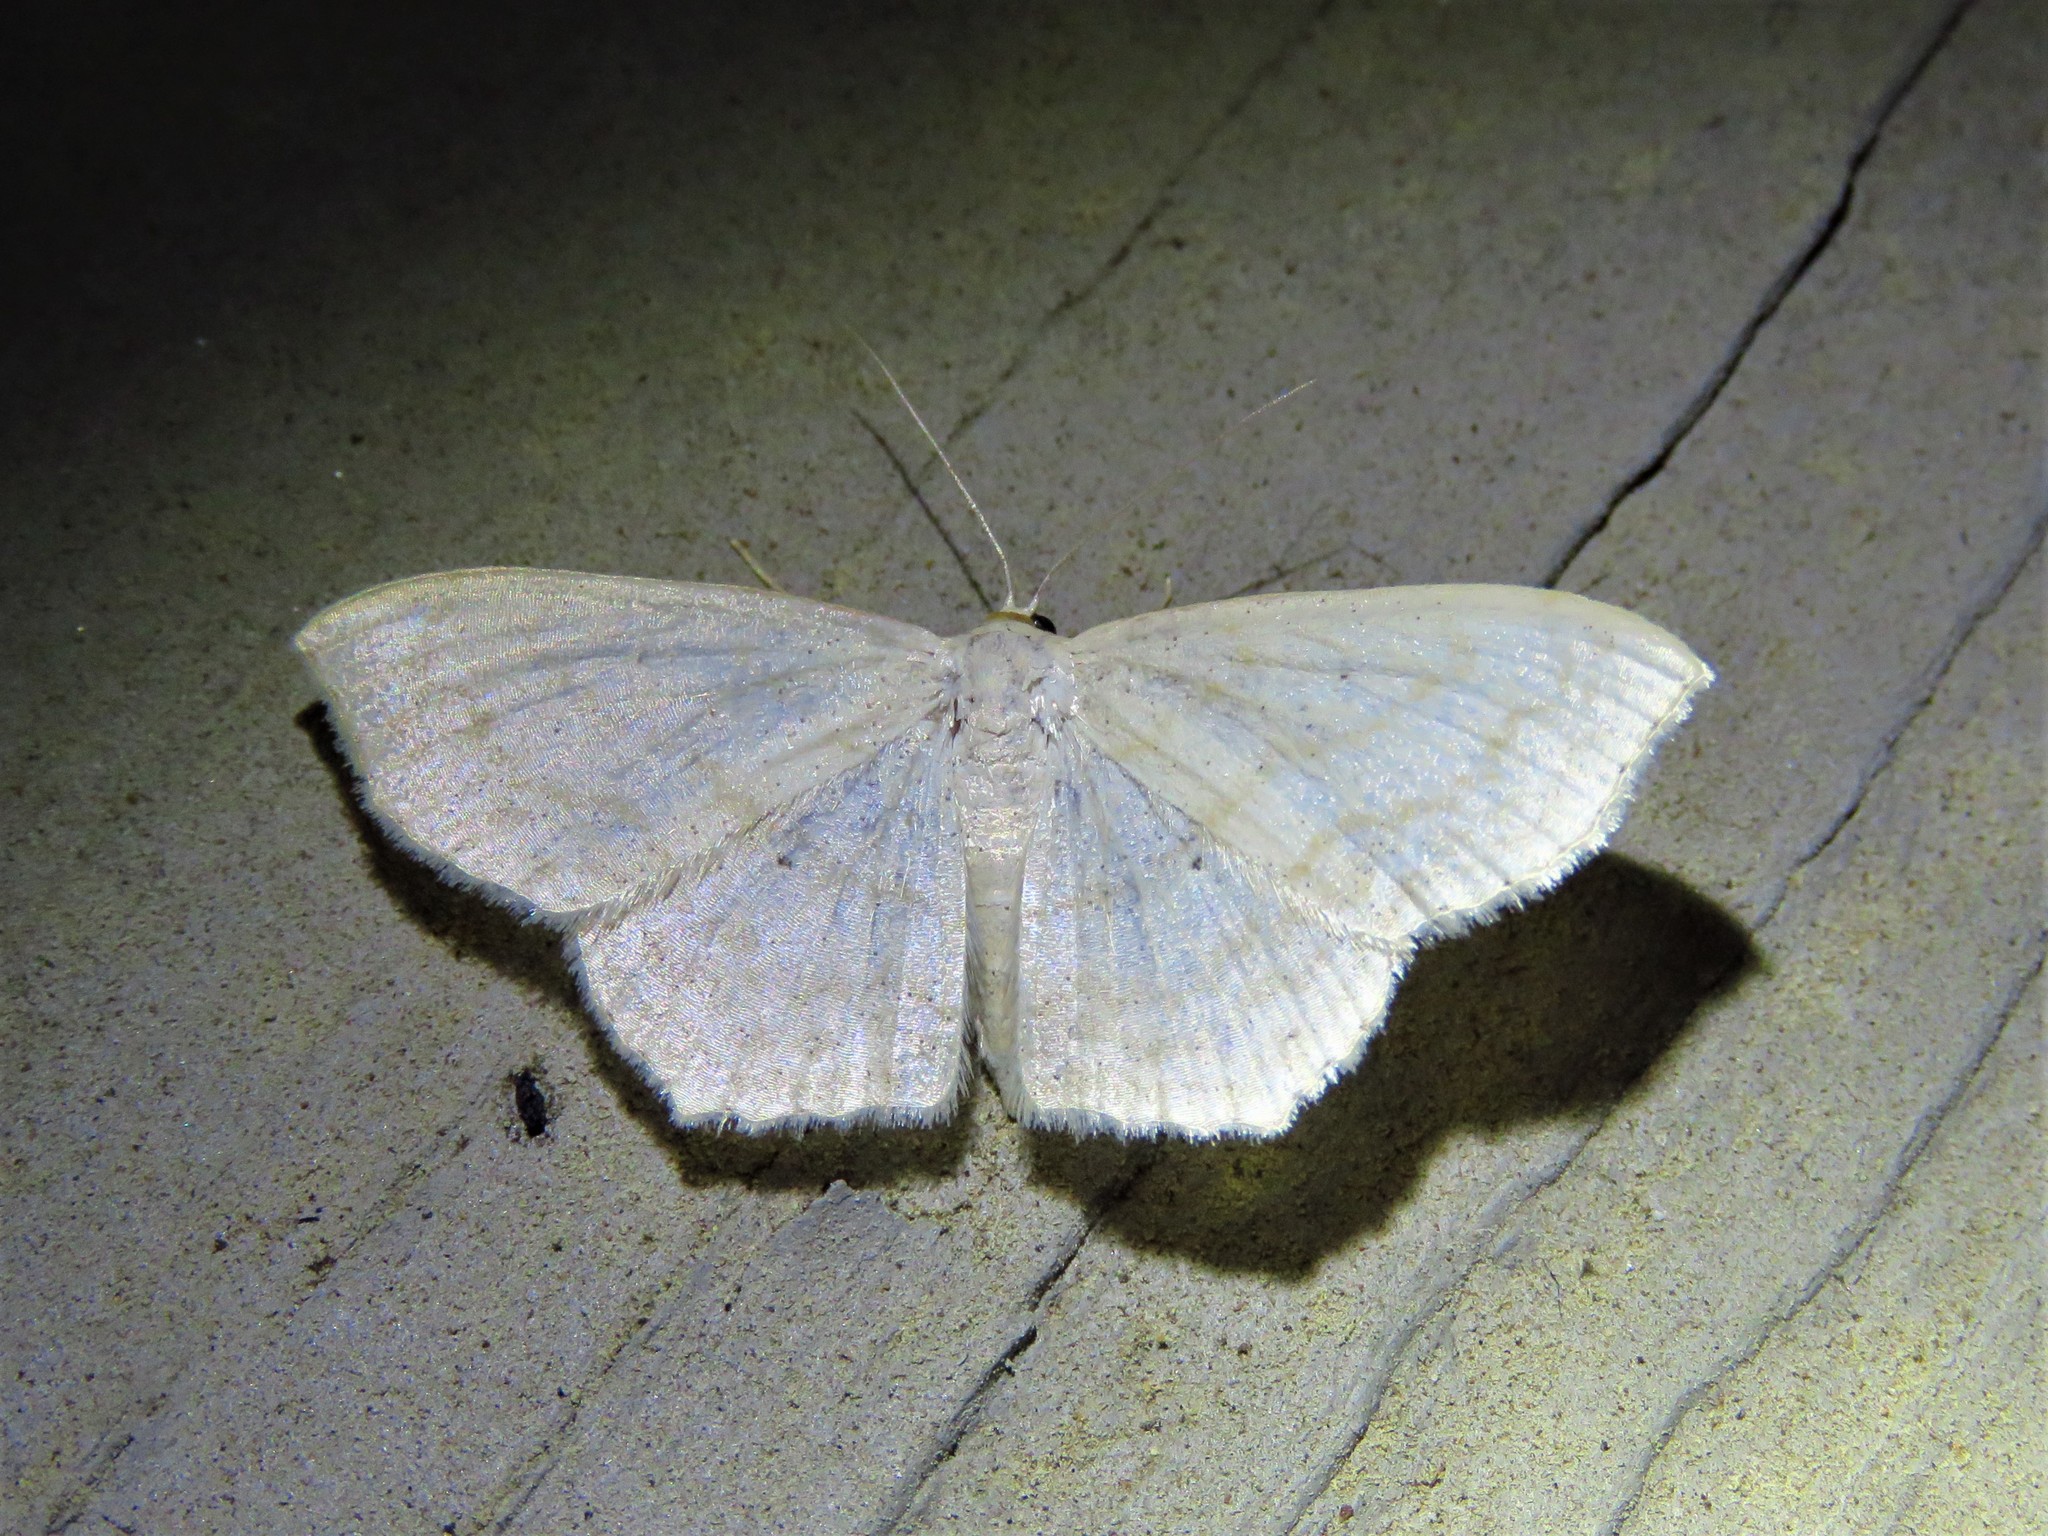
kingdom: Animalia
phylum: Arthropoda
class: Insecta
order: Lepidoptera
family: Geometridae
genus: Scopula
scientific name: Scopula limboundata
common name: Large lace border
